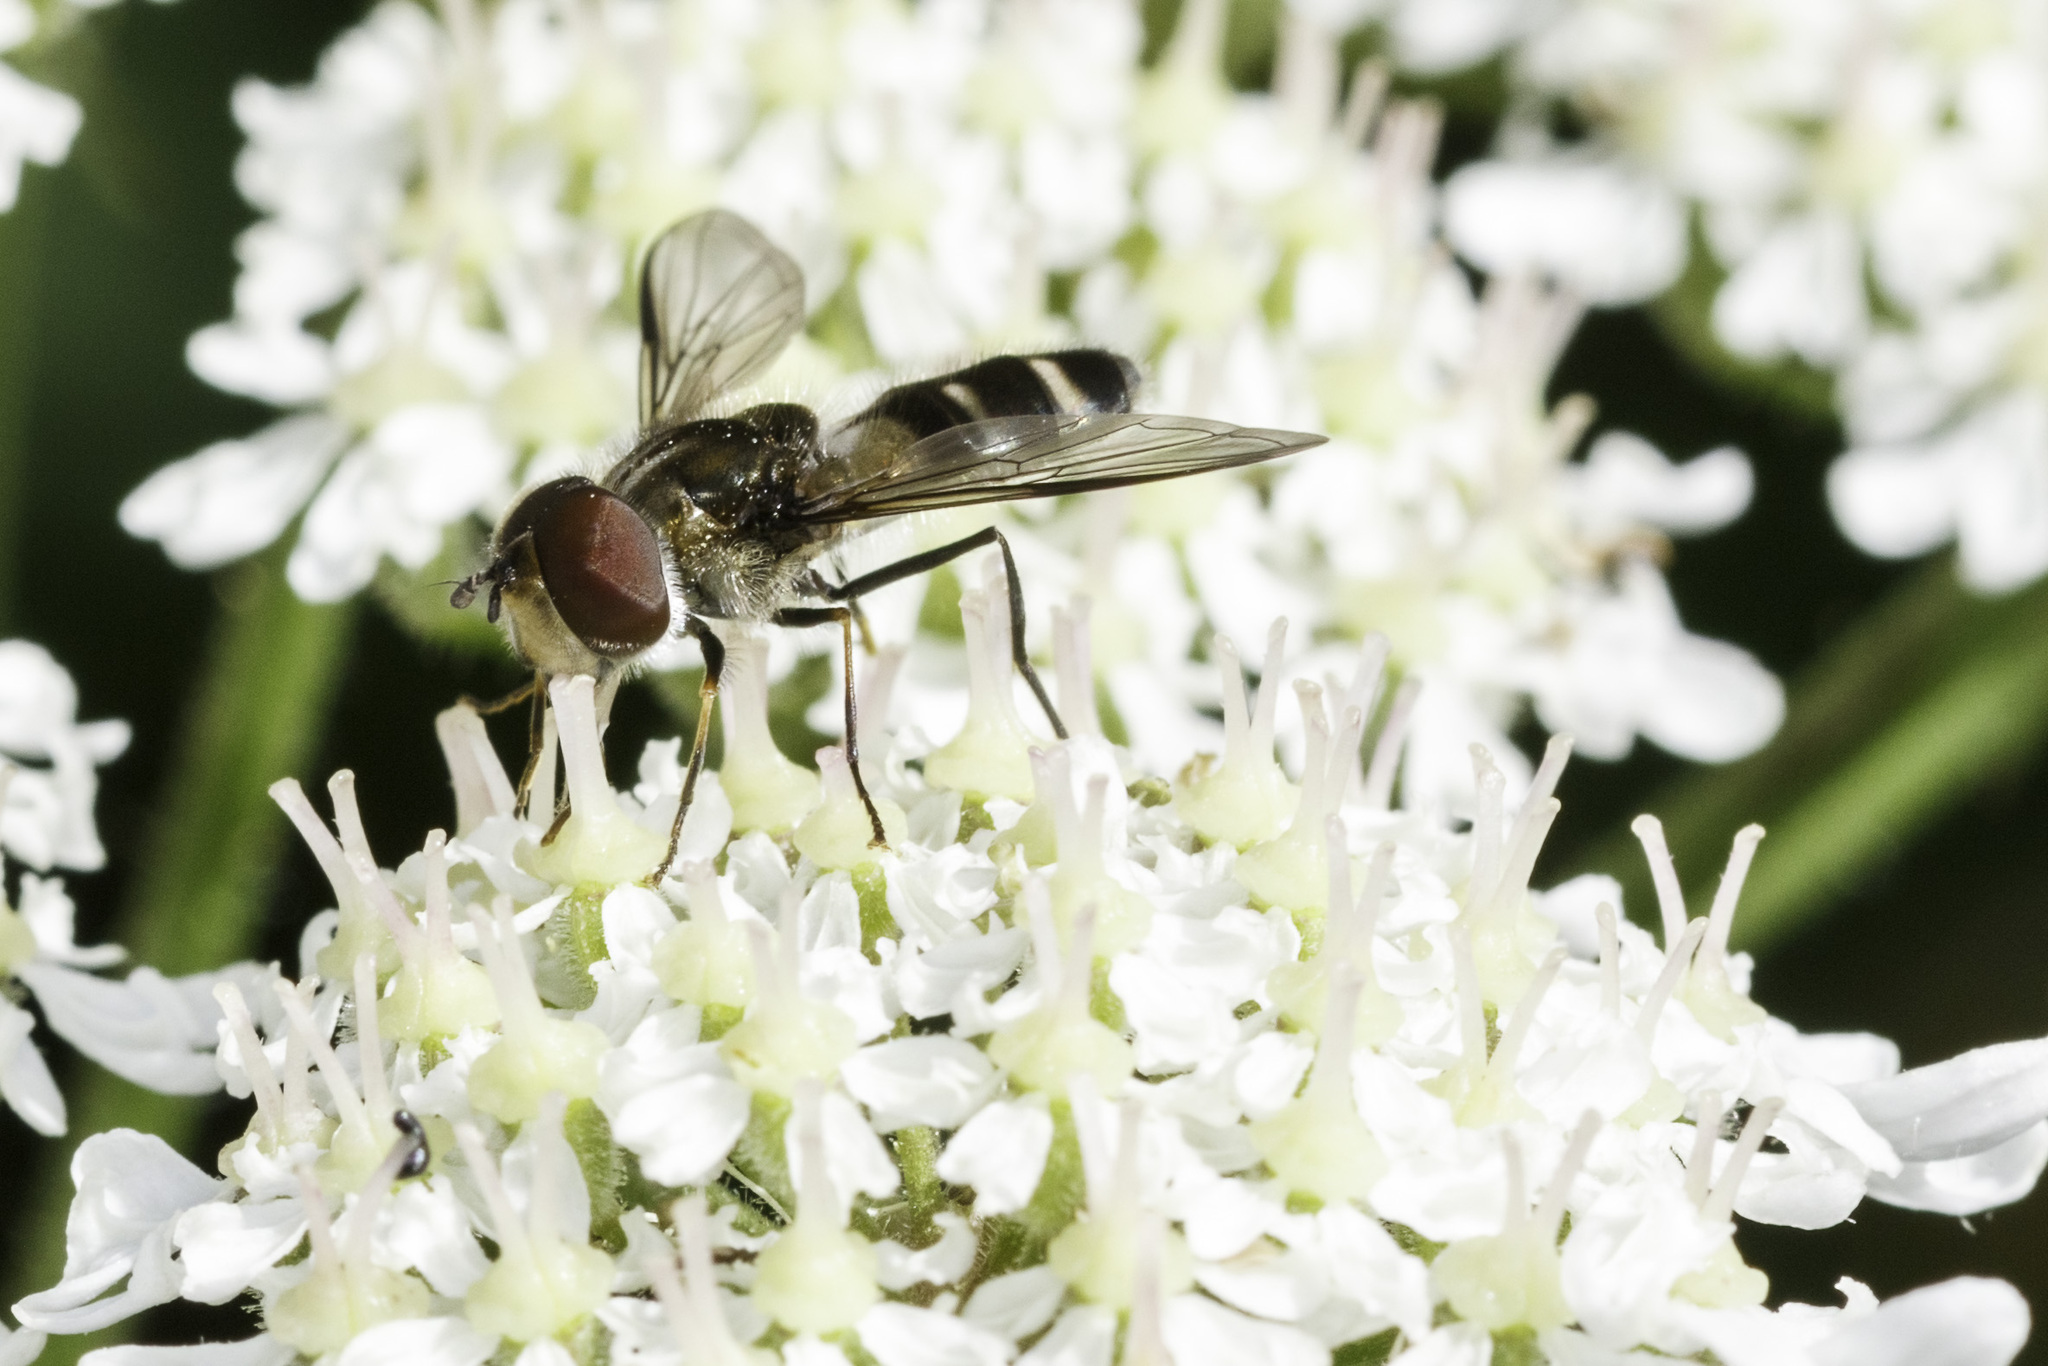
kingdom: Animalia
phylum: Arthropoda
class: Insecta
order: Diptera
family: Syrphidae
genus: Leucozona
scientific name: Leucozona laternaria
